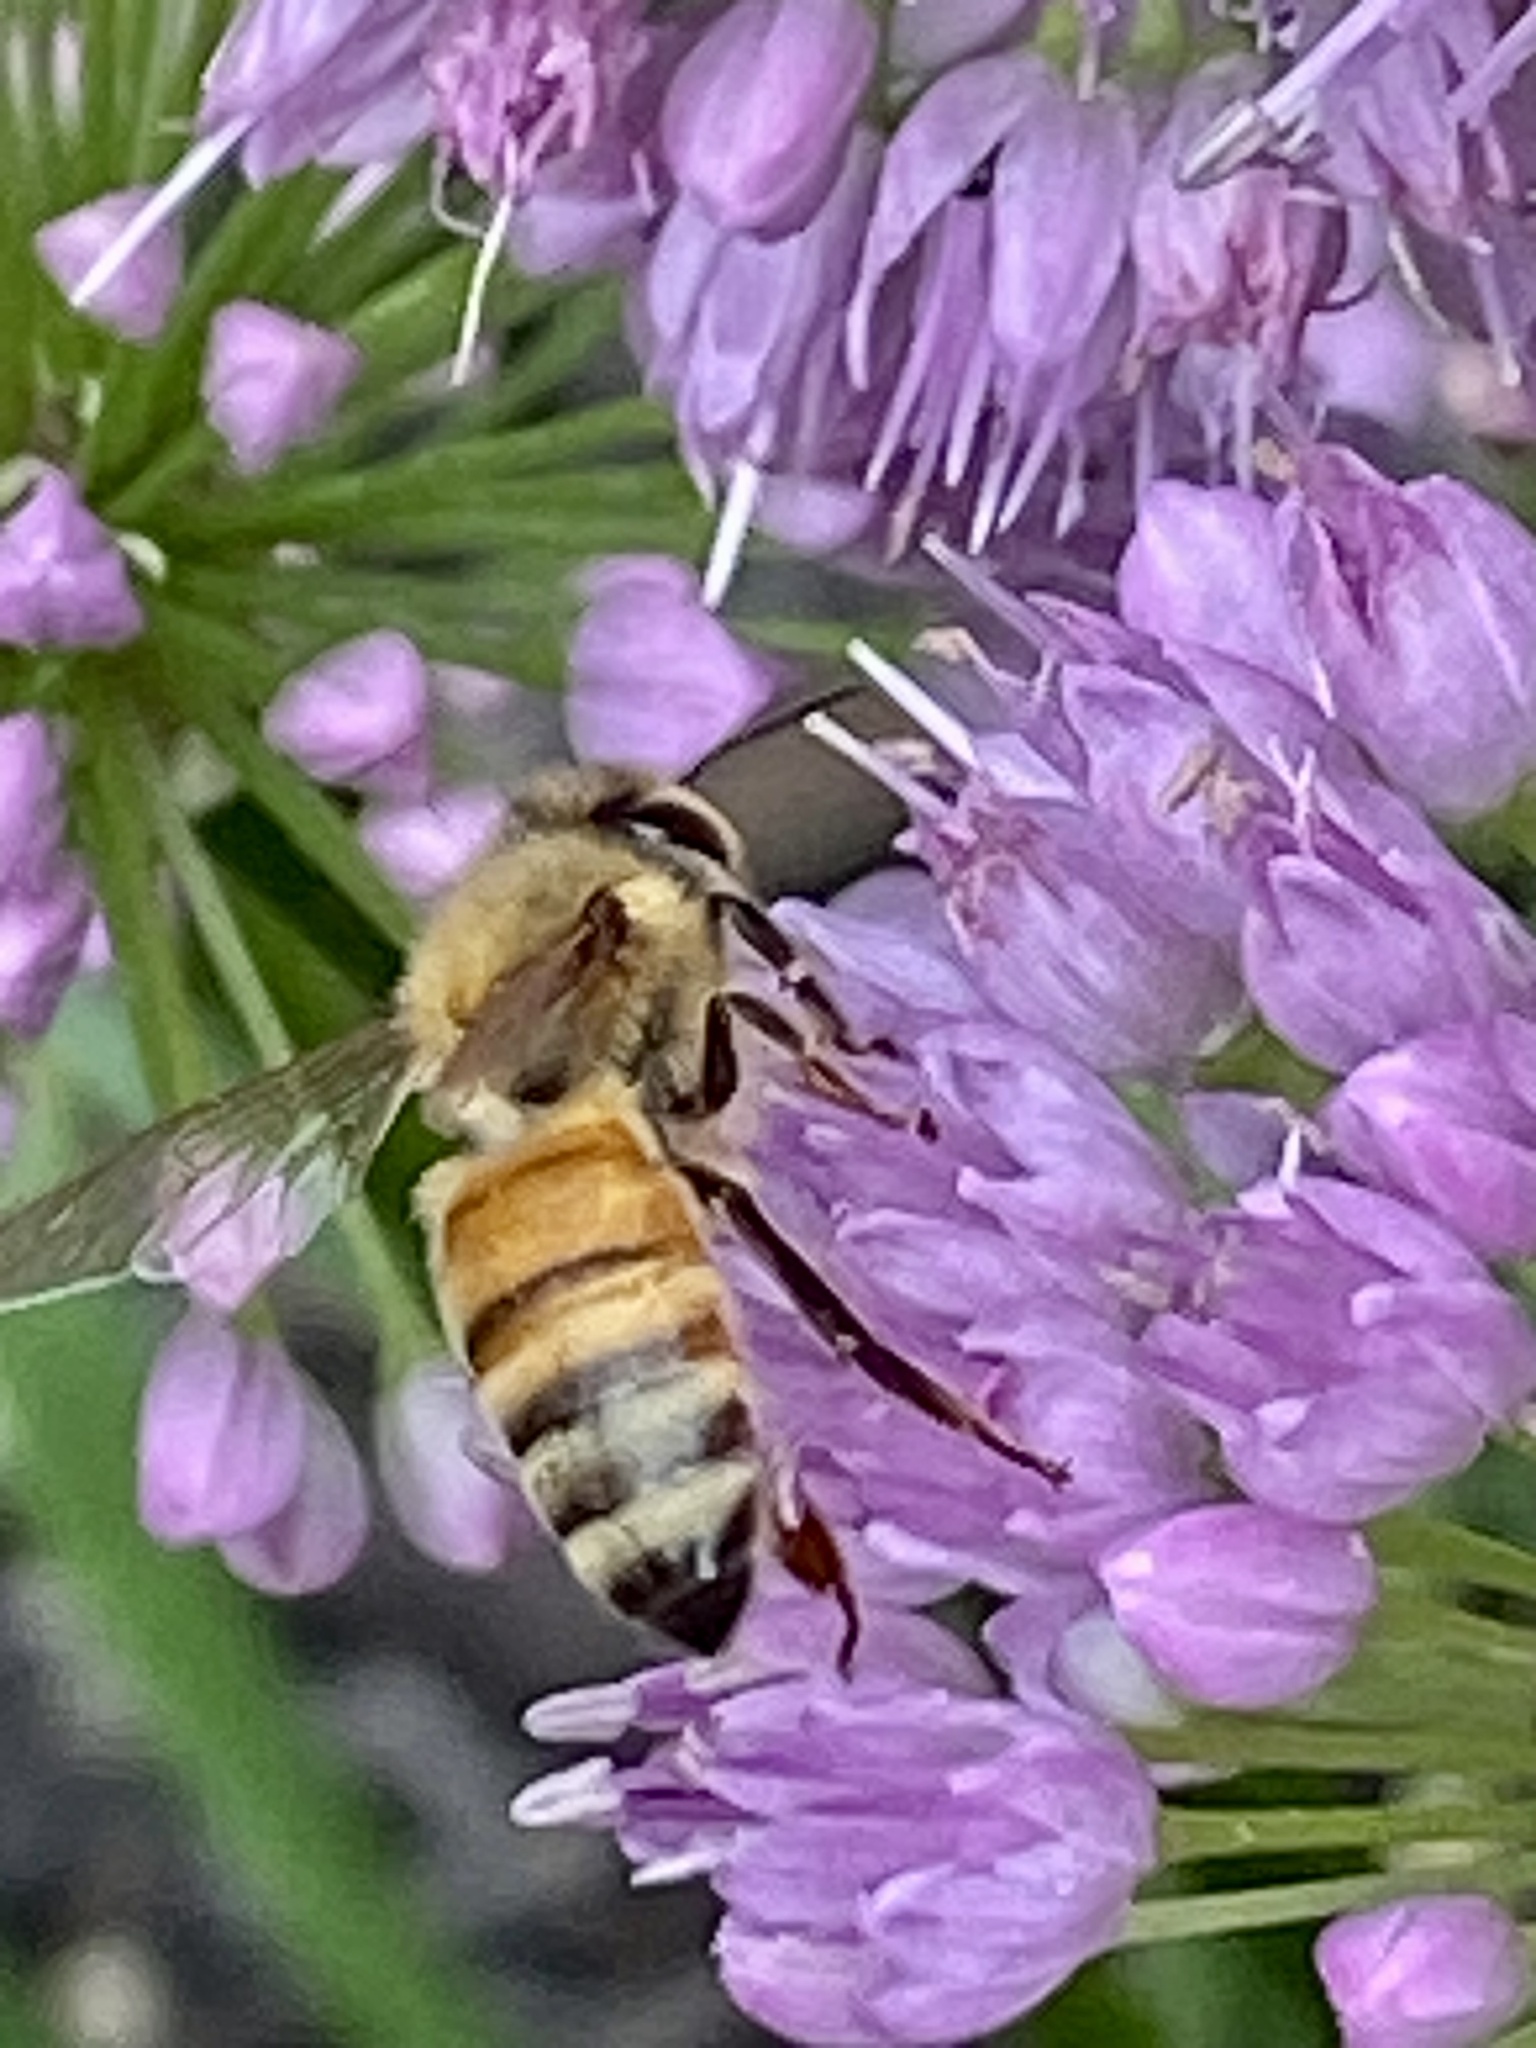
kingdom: Animalia
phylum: Arthropoda
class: Insecta
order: Hymenoptera
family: Apidae
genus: Apis
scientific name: Apis mellifera
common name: Honey bee
